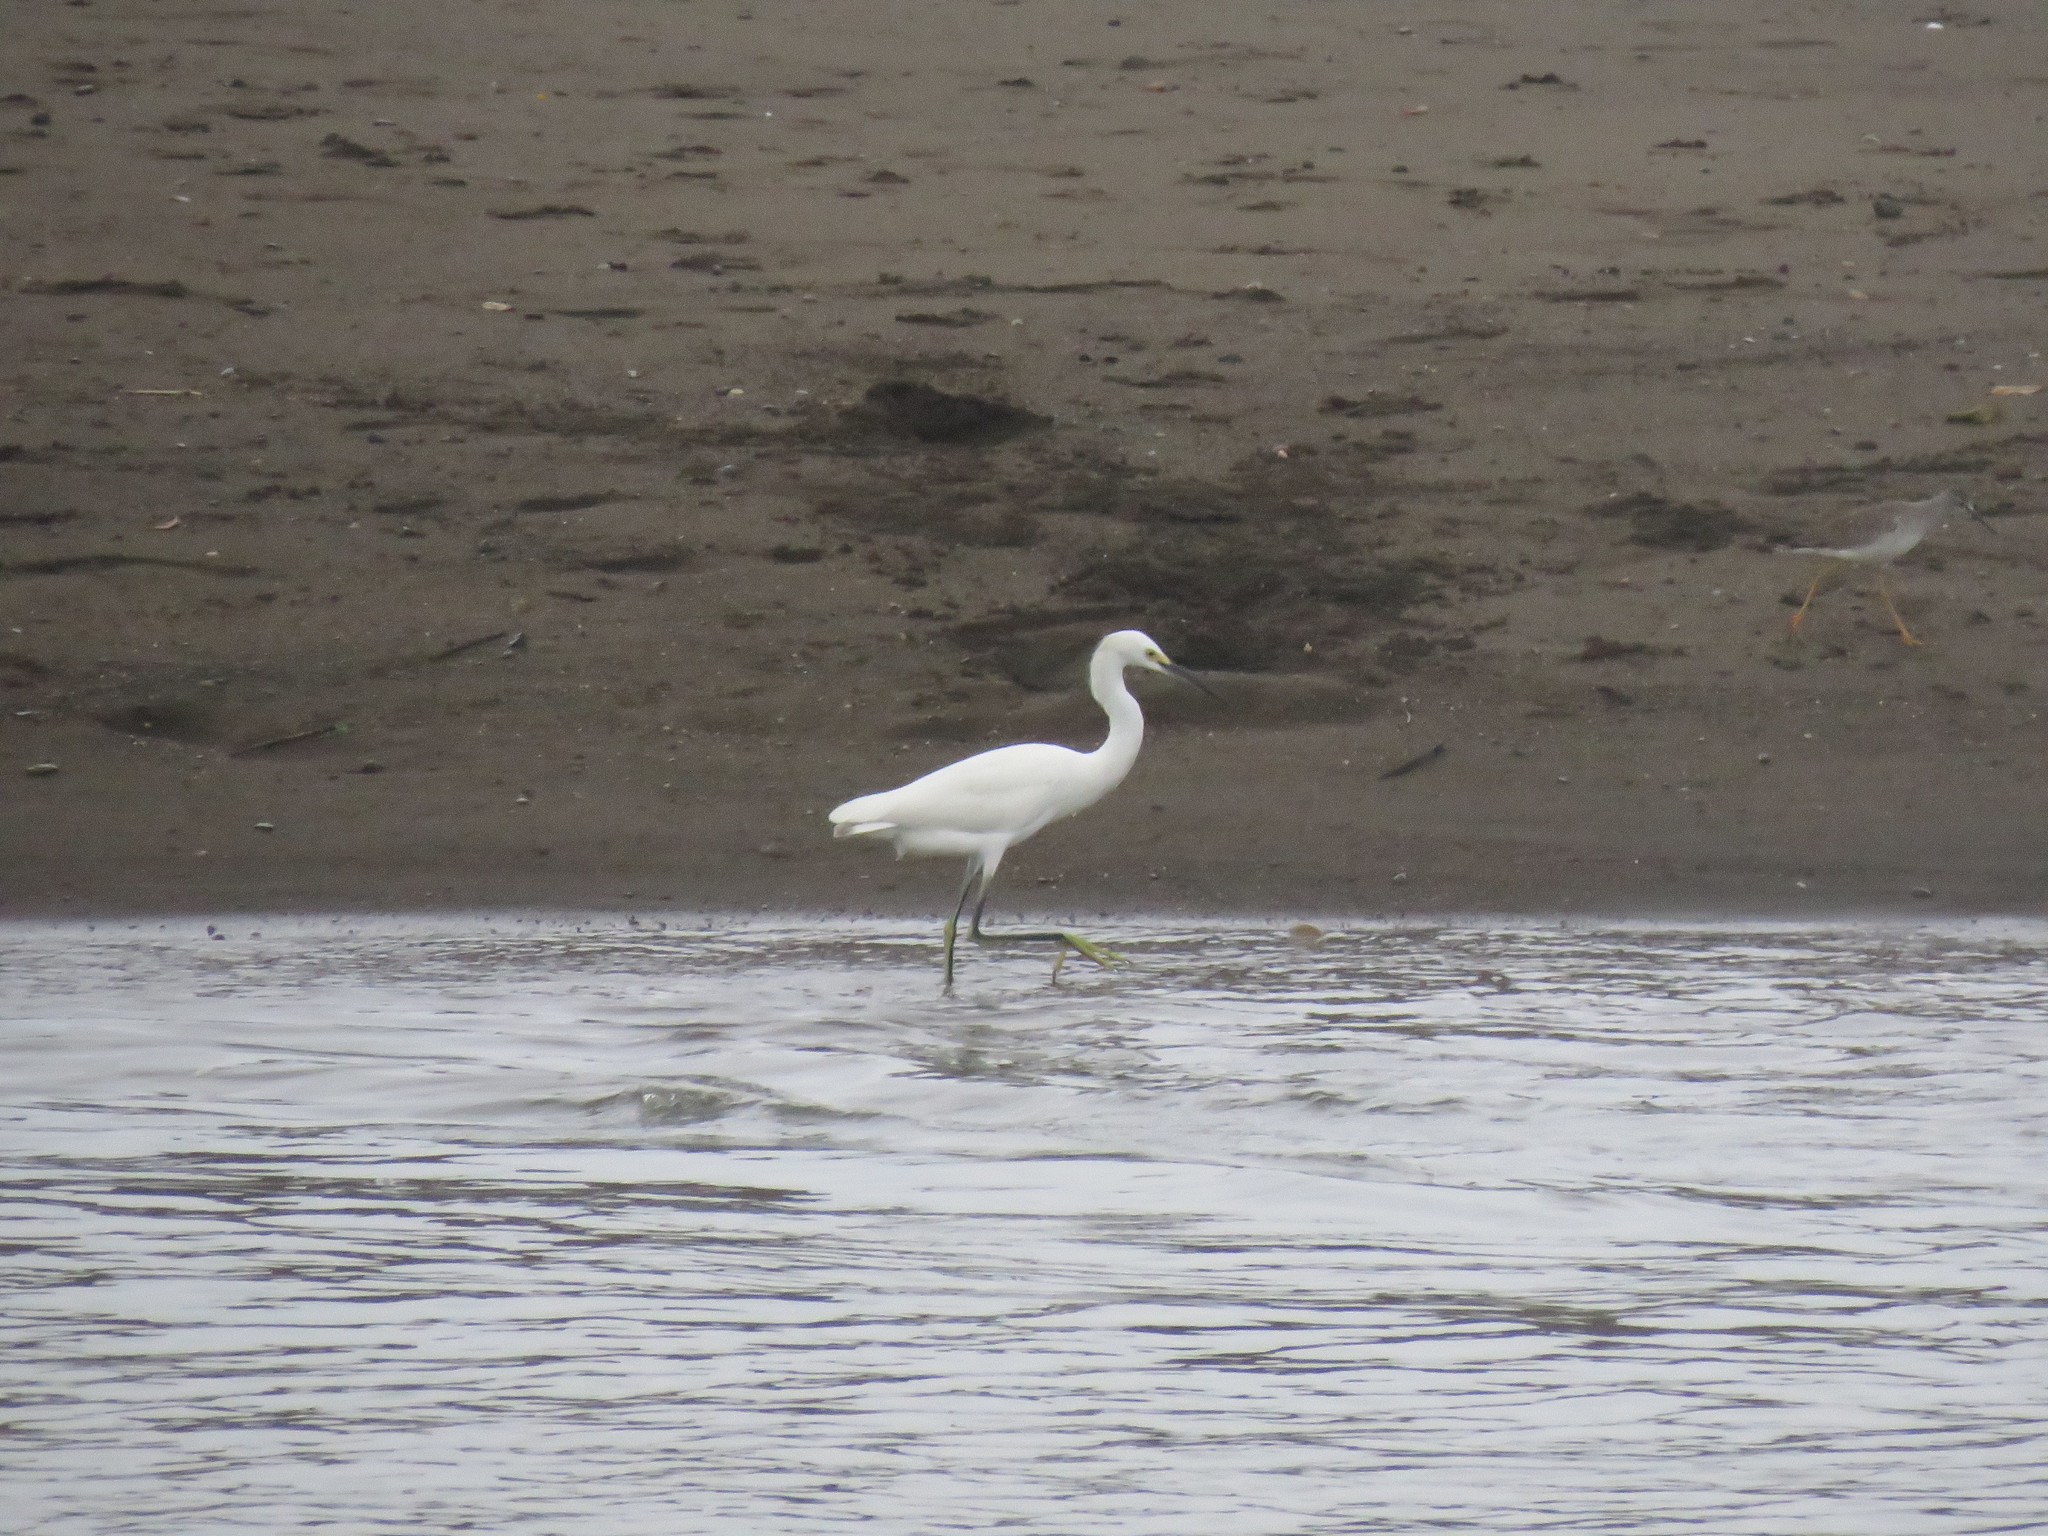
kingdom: Animalia
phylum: Chordata
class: Aves
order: Pelecaniformes
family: Ardeidae
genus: Egretta
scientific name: Egretta thula
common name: Snowy egret
